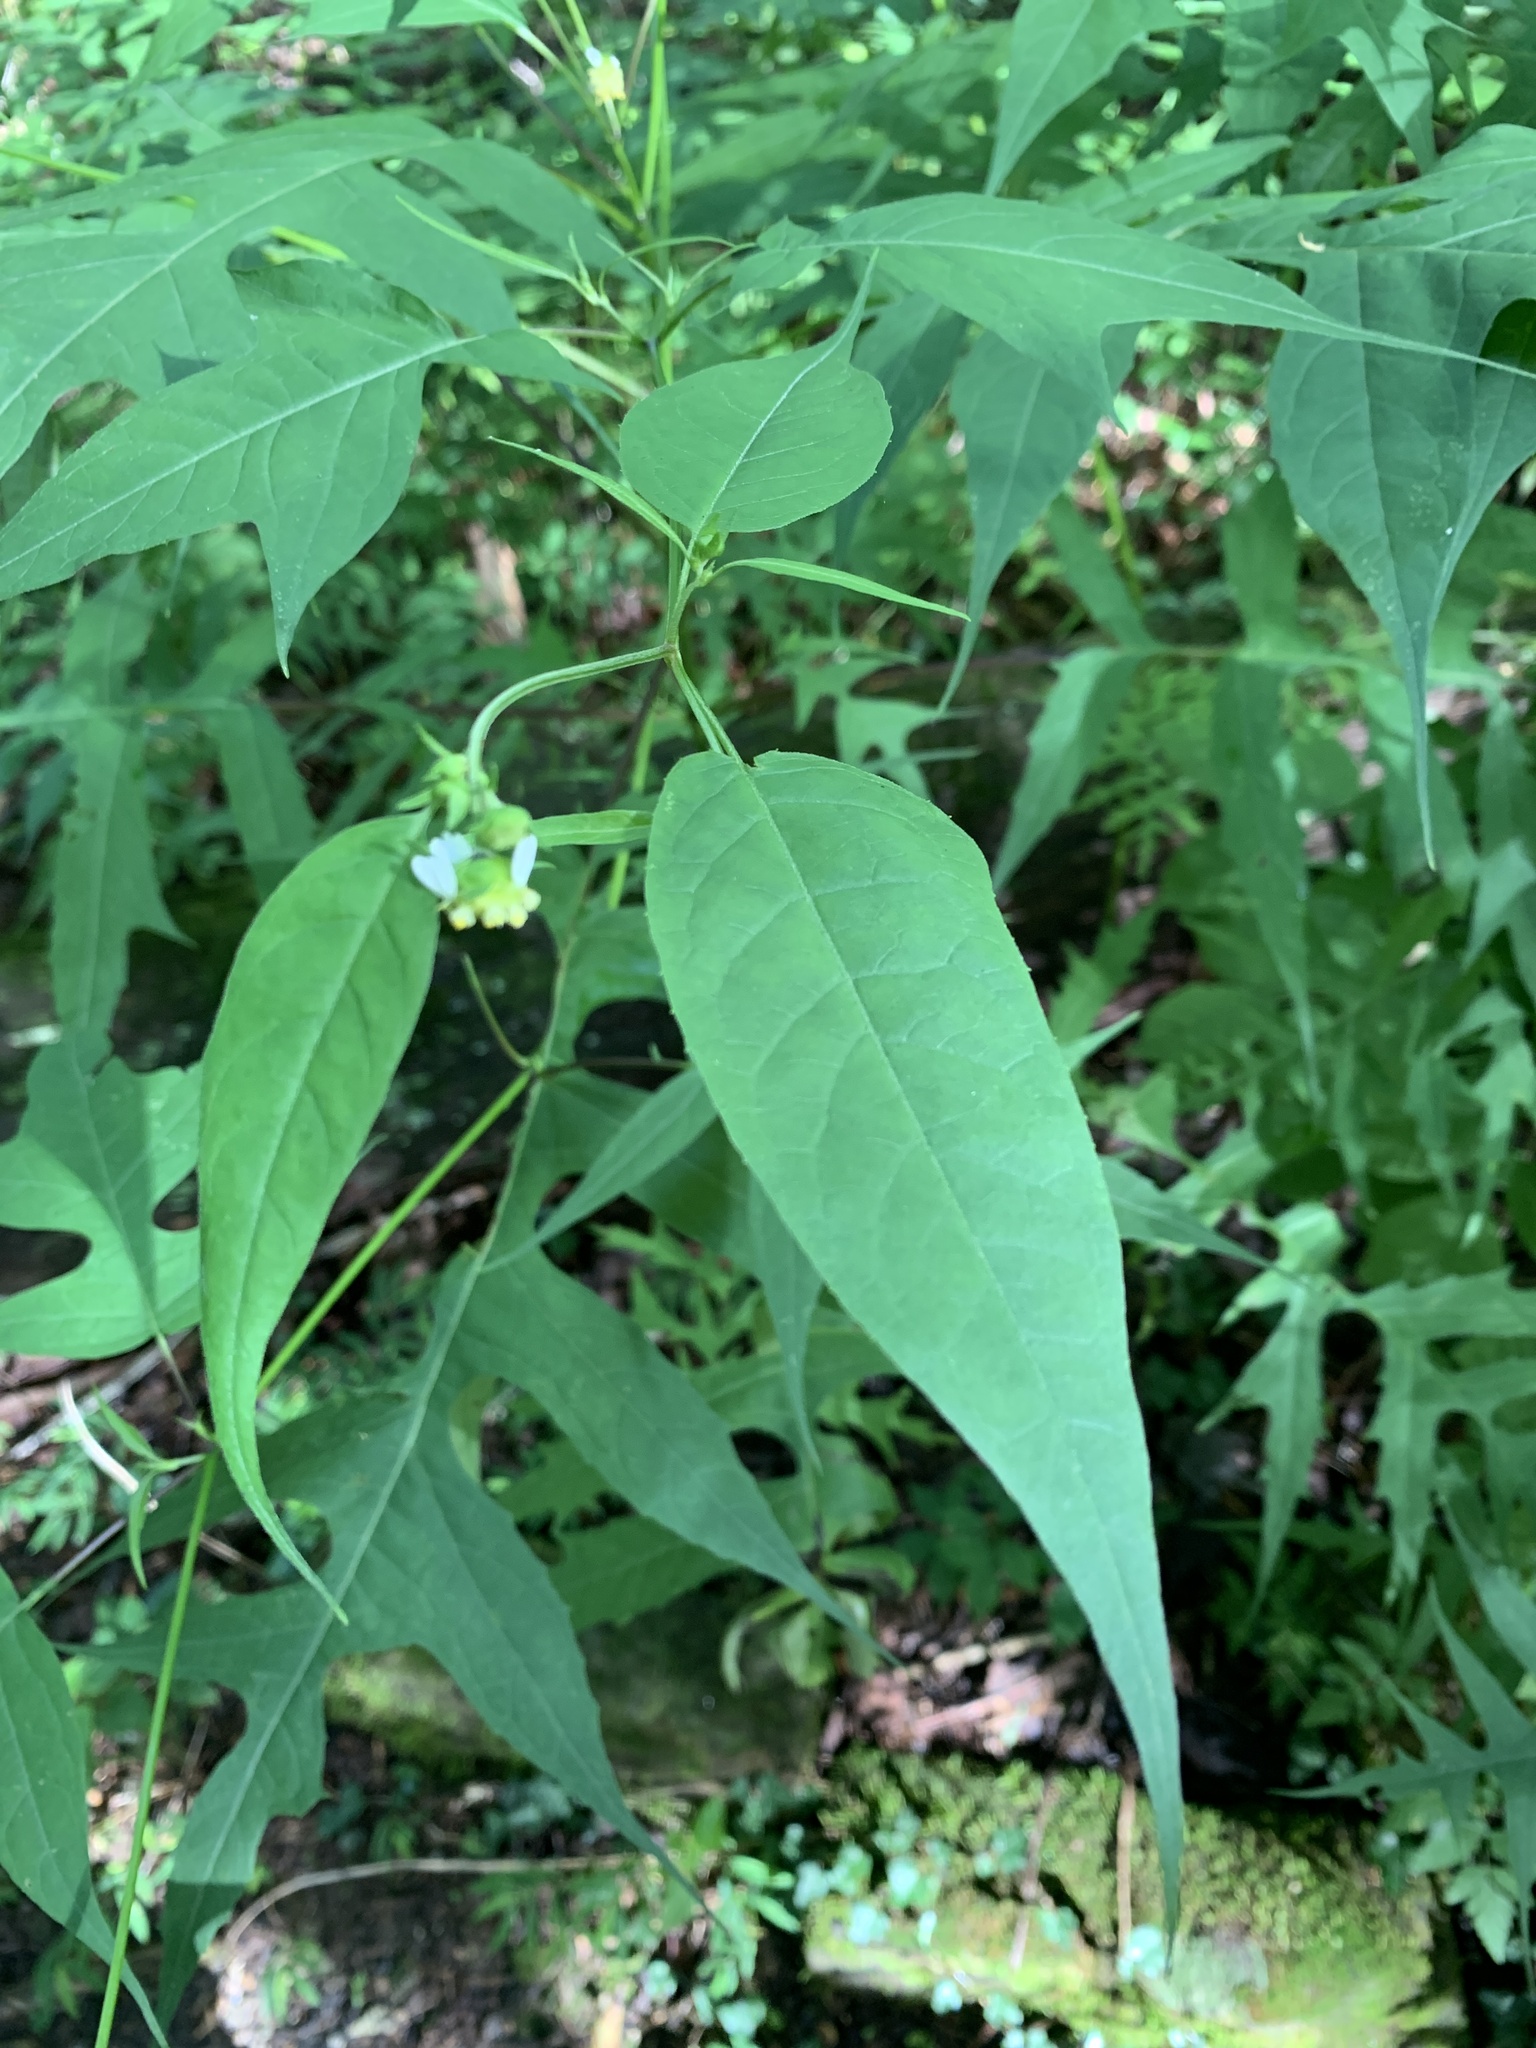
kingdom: Plantae
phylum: Tracheophyta
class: Magnoliopsida
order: Asterales
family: Asteraceae
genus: Polymnia
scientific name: Polymnia laevigata
